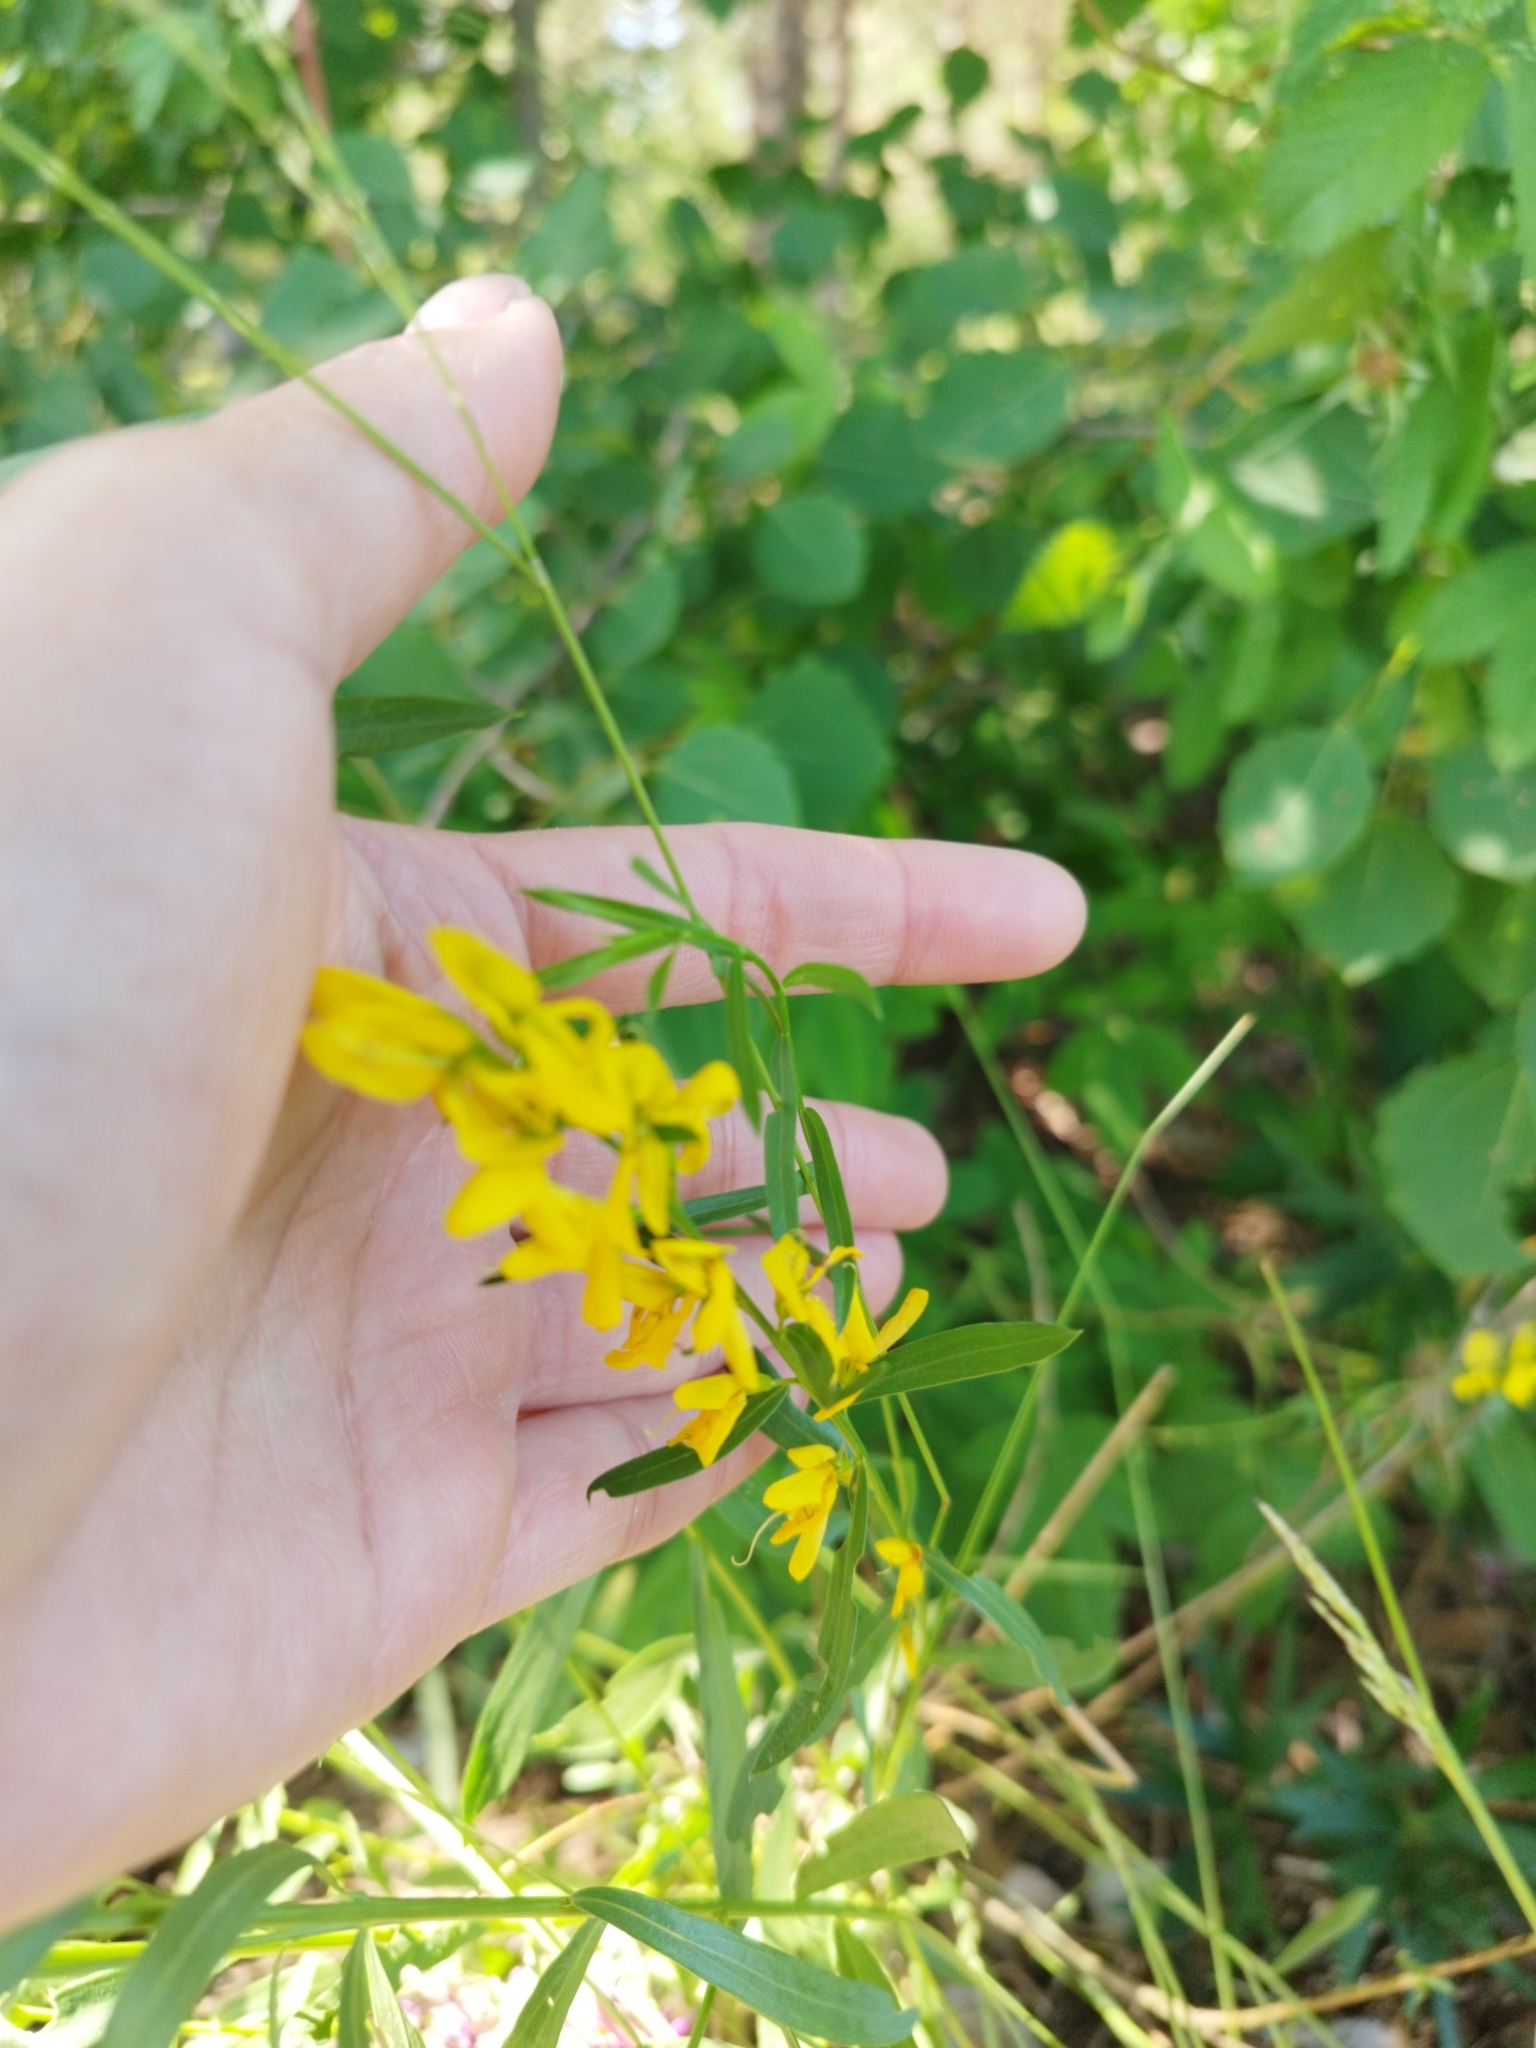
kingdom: Plantae
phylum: Tracheophyta
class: Magnoliopsida
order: Fabales
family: Fabaceae
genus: Genista
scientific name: Genista tinctoria
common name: Dyer's greenweed
